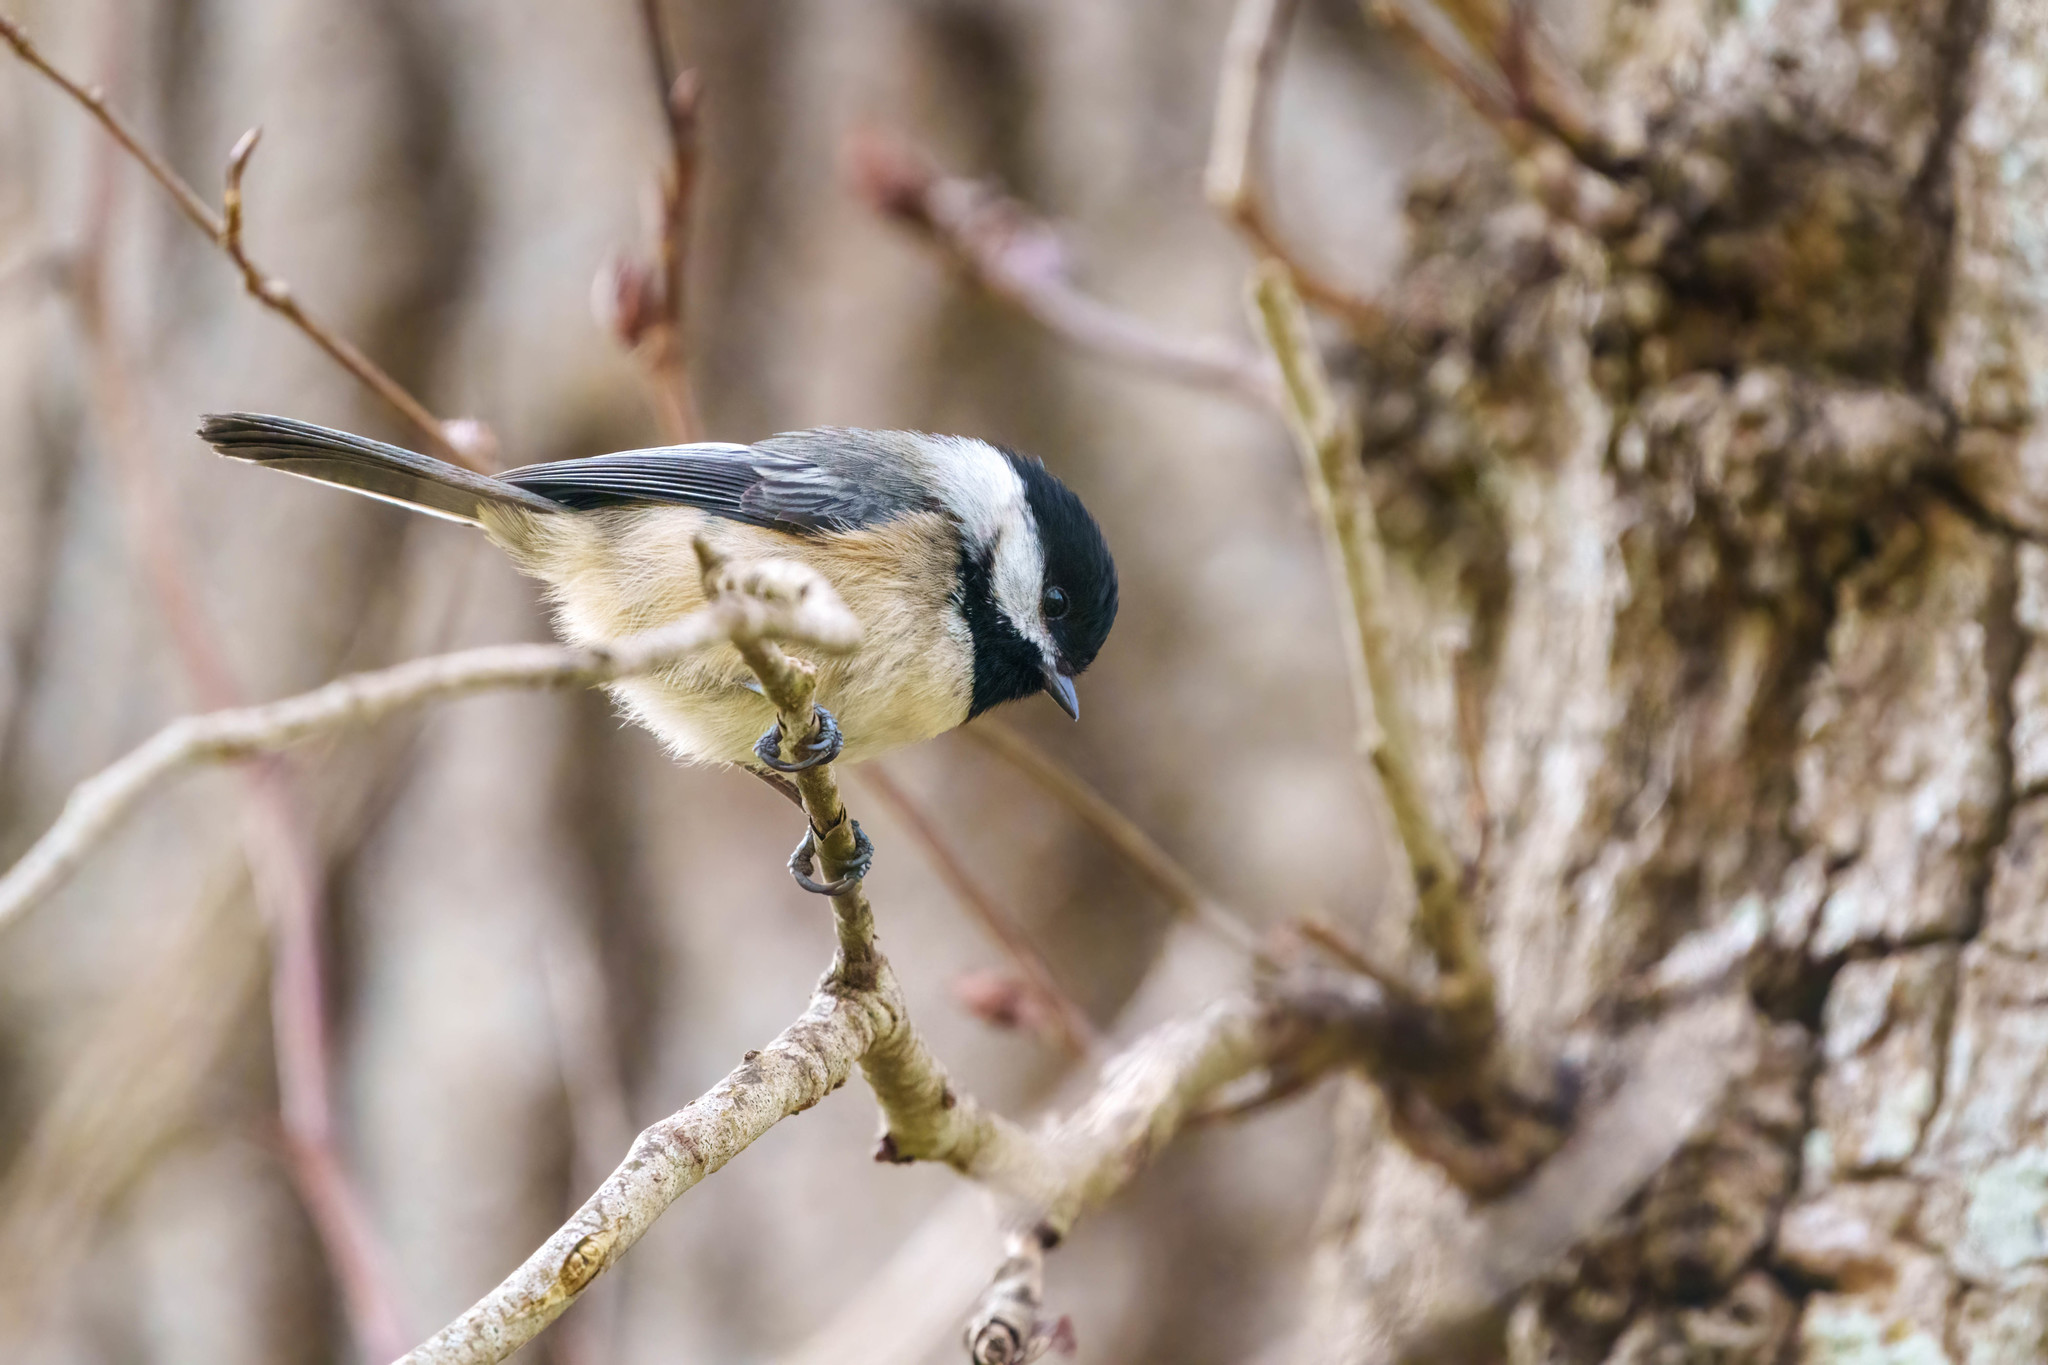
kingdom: Animalia
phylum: Chordata
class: Aves
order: Passeriformes
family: Paridae
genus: Poecile
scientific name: Poecile atricapillus
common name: Black-capped chickadee
